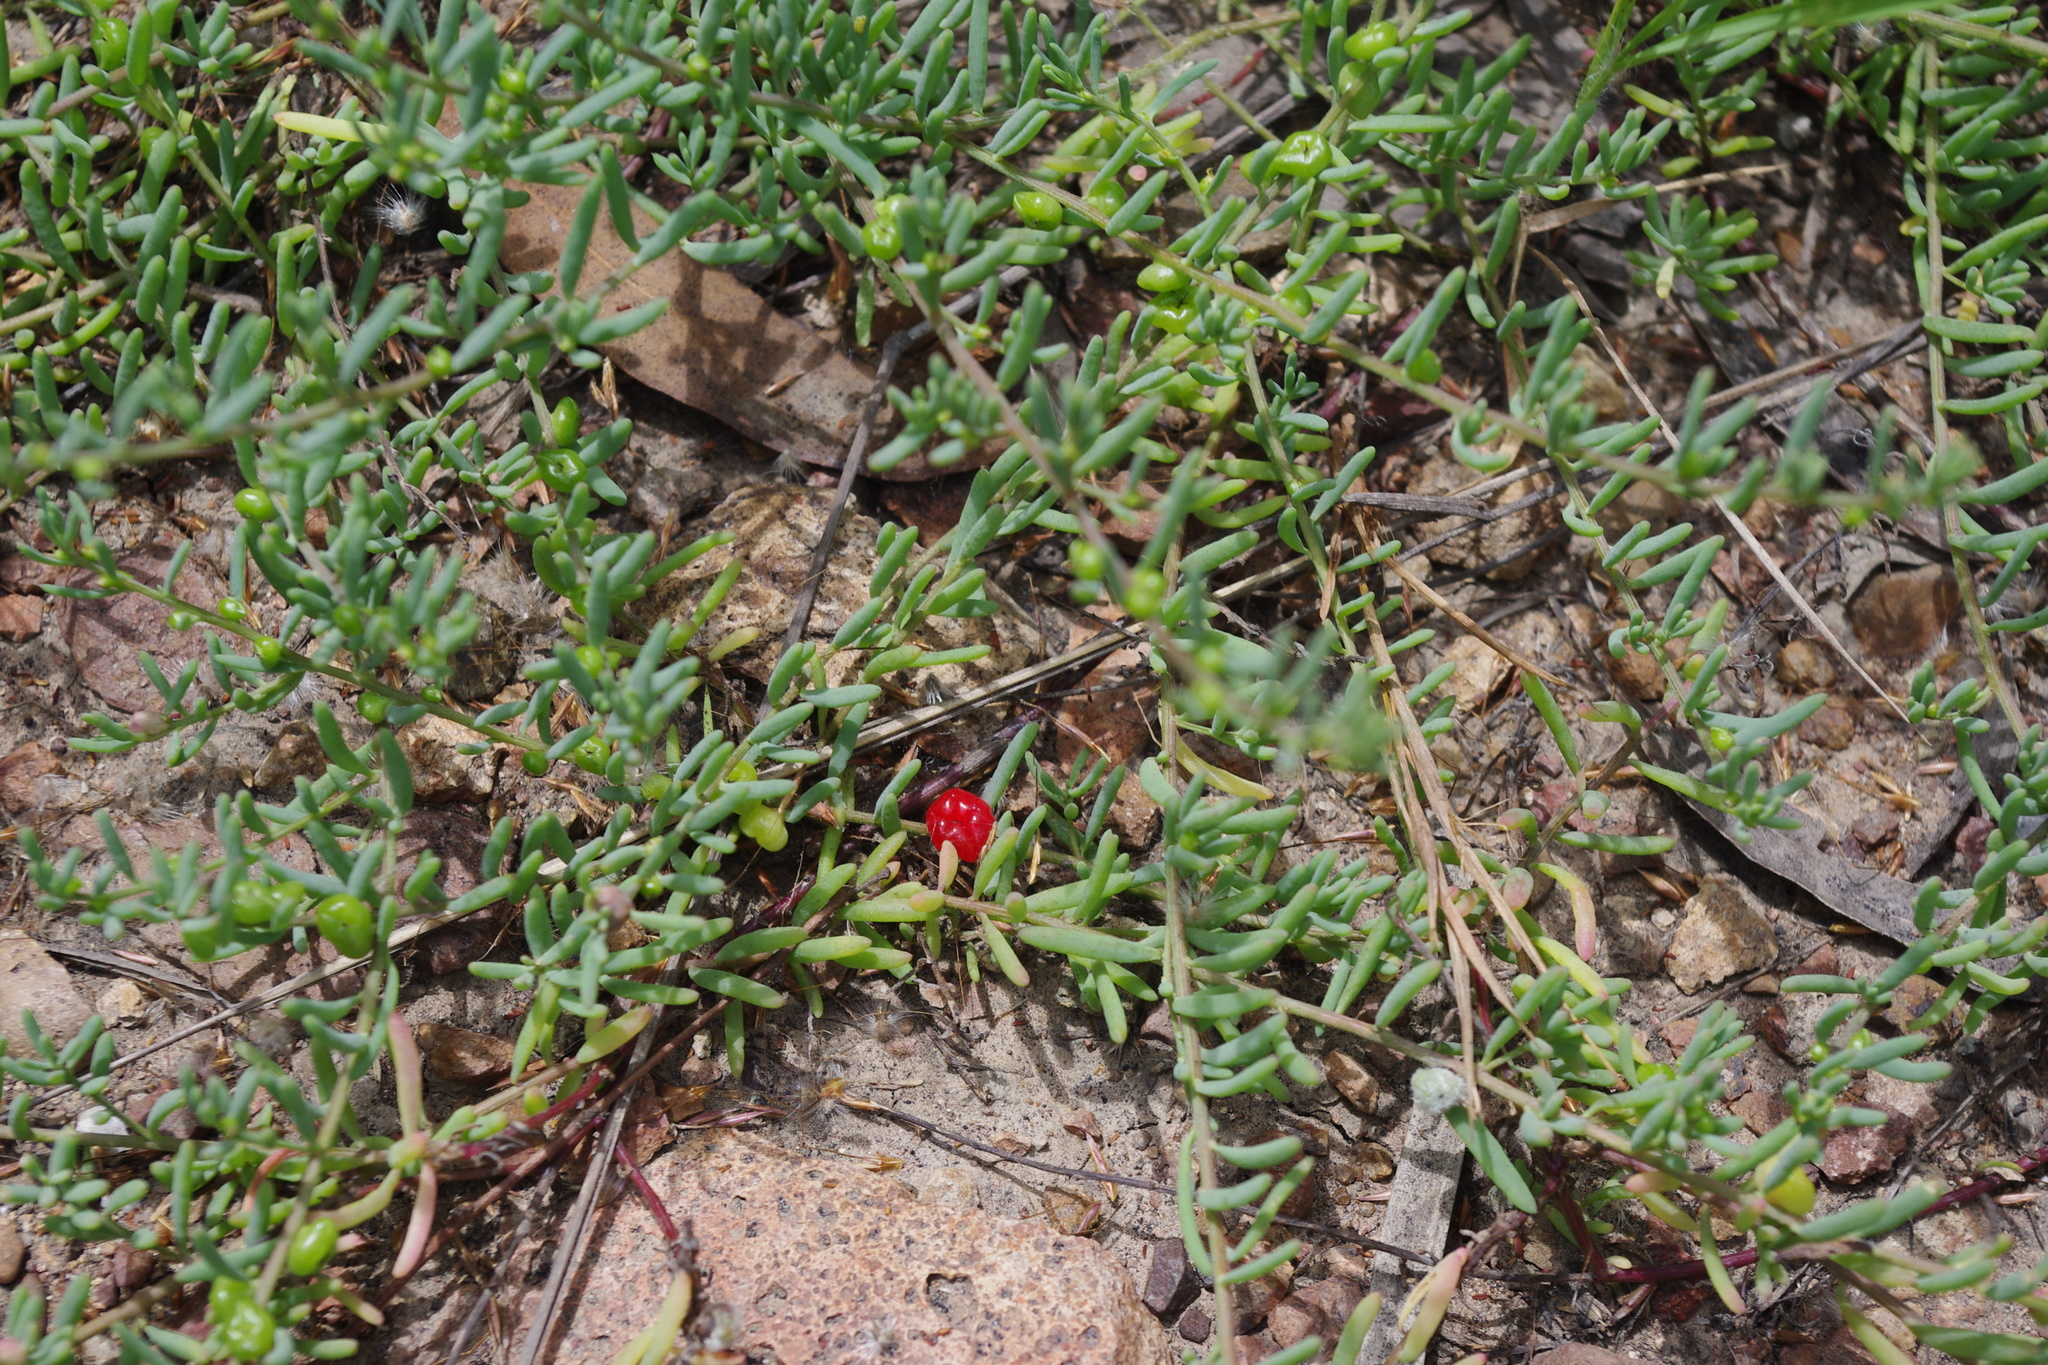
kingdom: Plantae
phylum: Tracheophyta
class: Magnoliopsida
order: Caryophyllales
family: Amaranthaceae
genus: Enchylaena
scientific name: Enchylaena tomentosa
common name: Ruby saltbush
